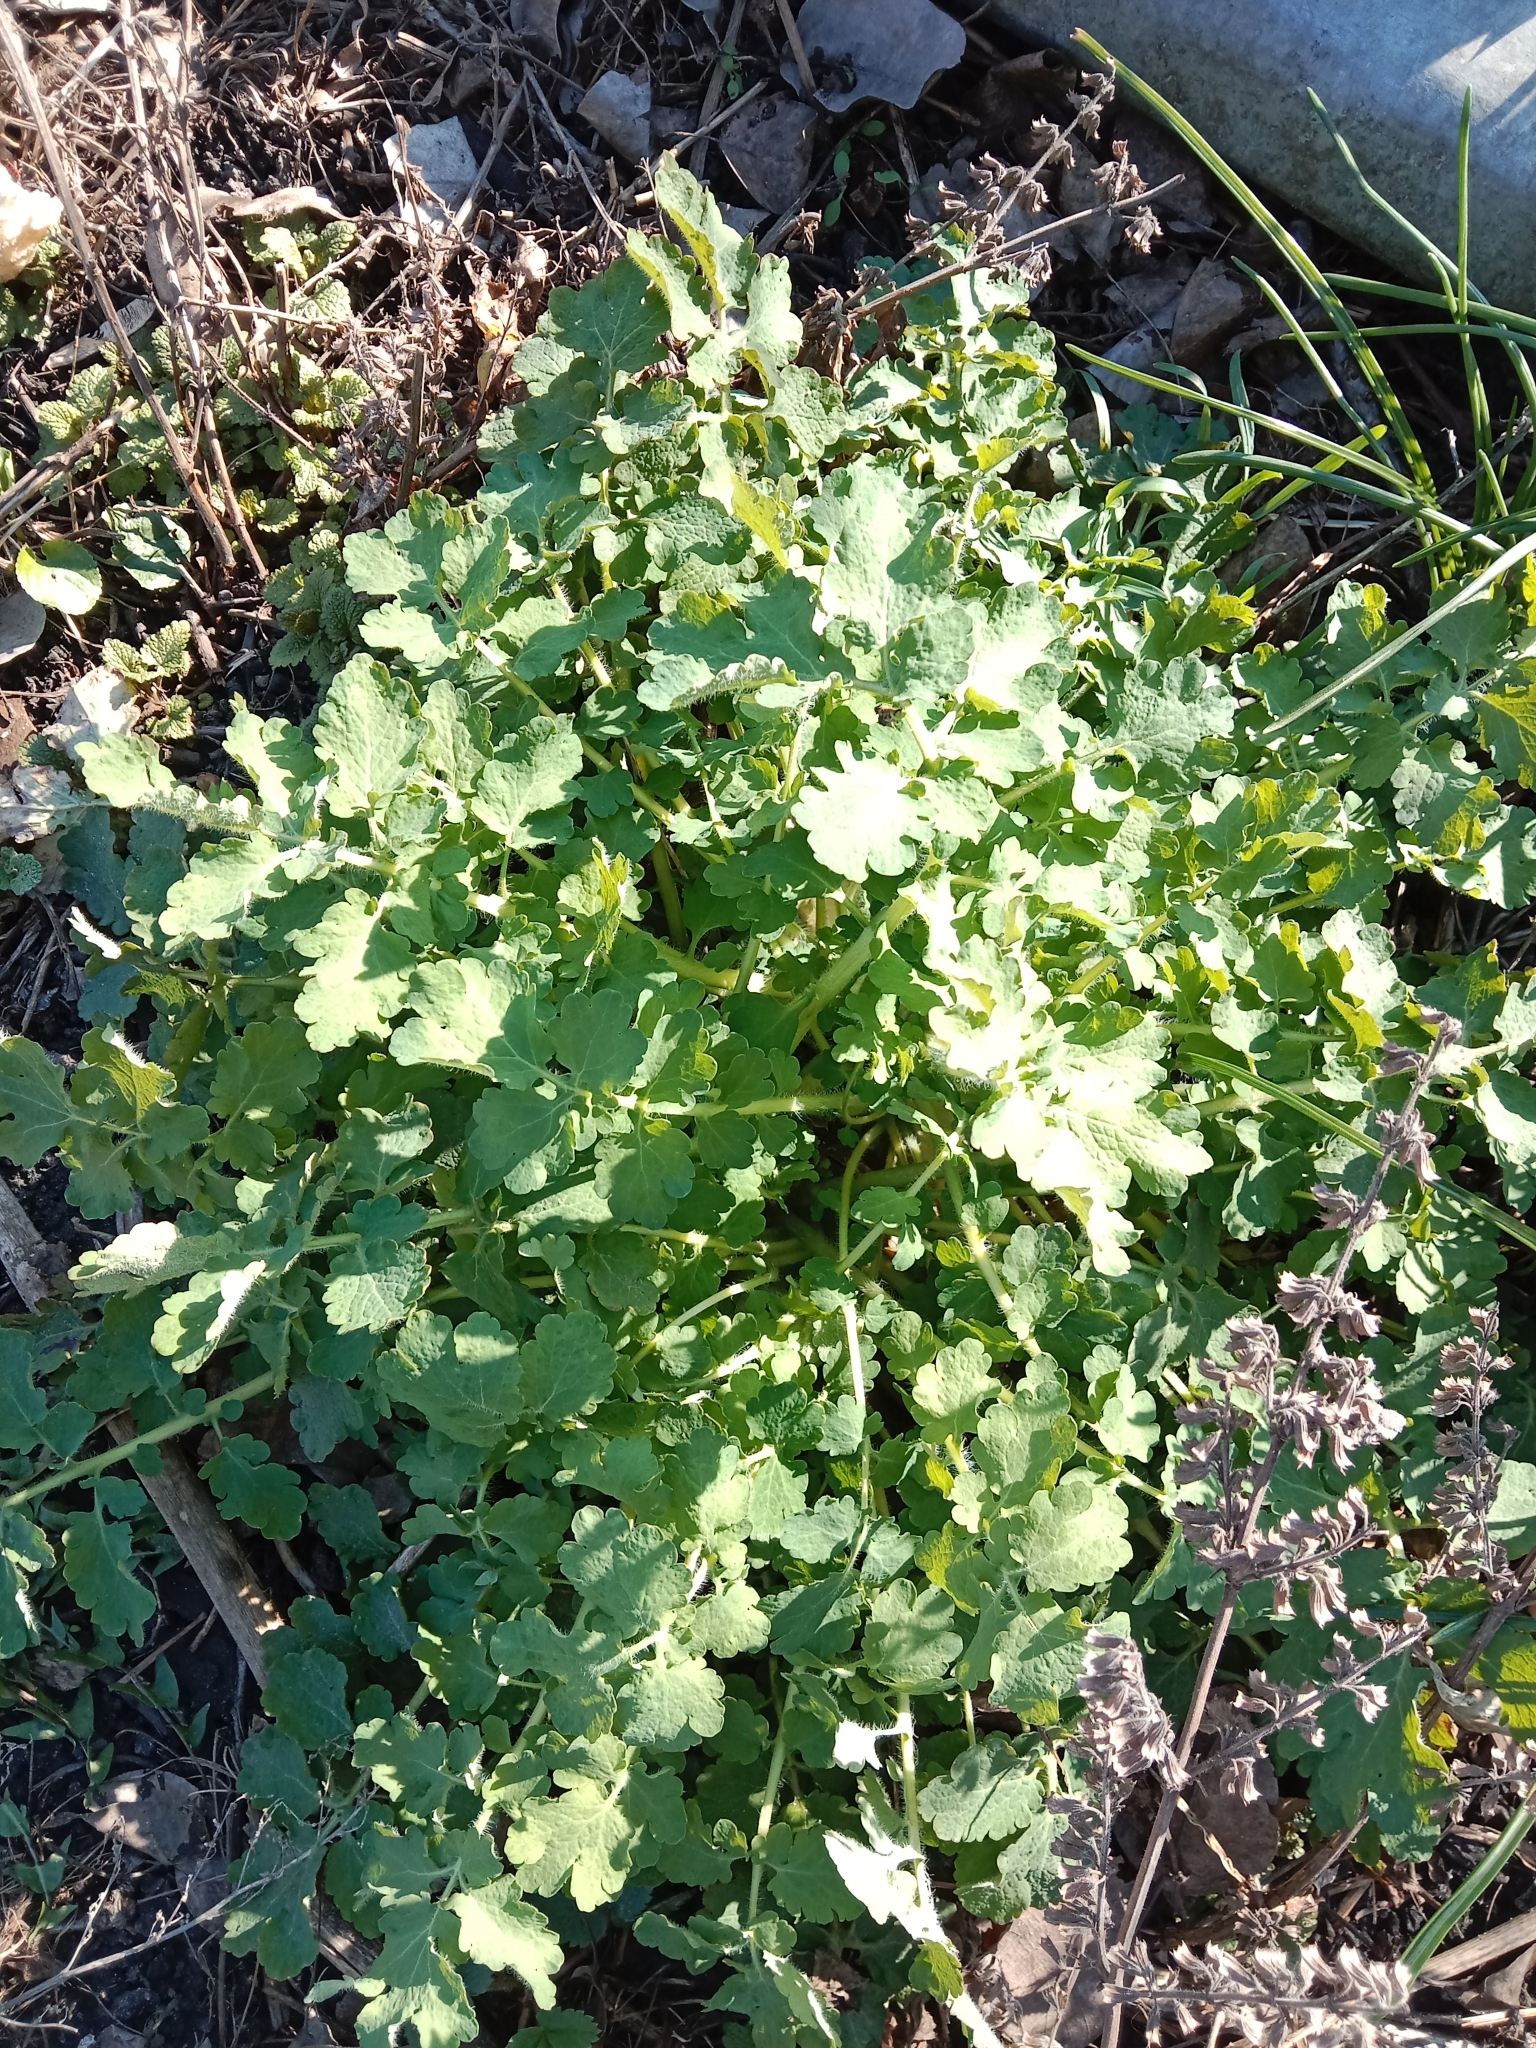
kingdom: Plantae
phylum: Tracheophyta
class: Magnoliopsida
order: Ranunculales
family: Papaveraceae
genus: Chelidonium
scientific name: Chelidonium majus
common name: Greater celandine
